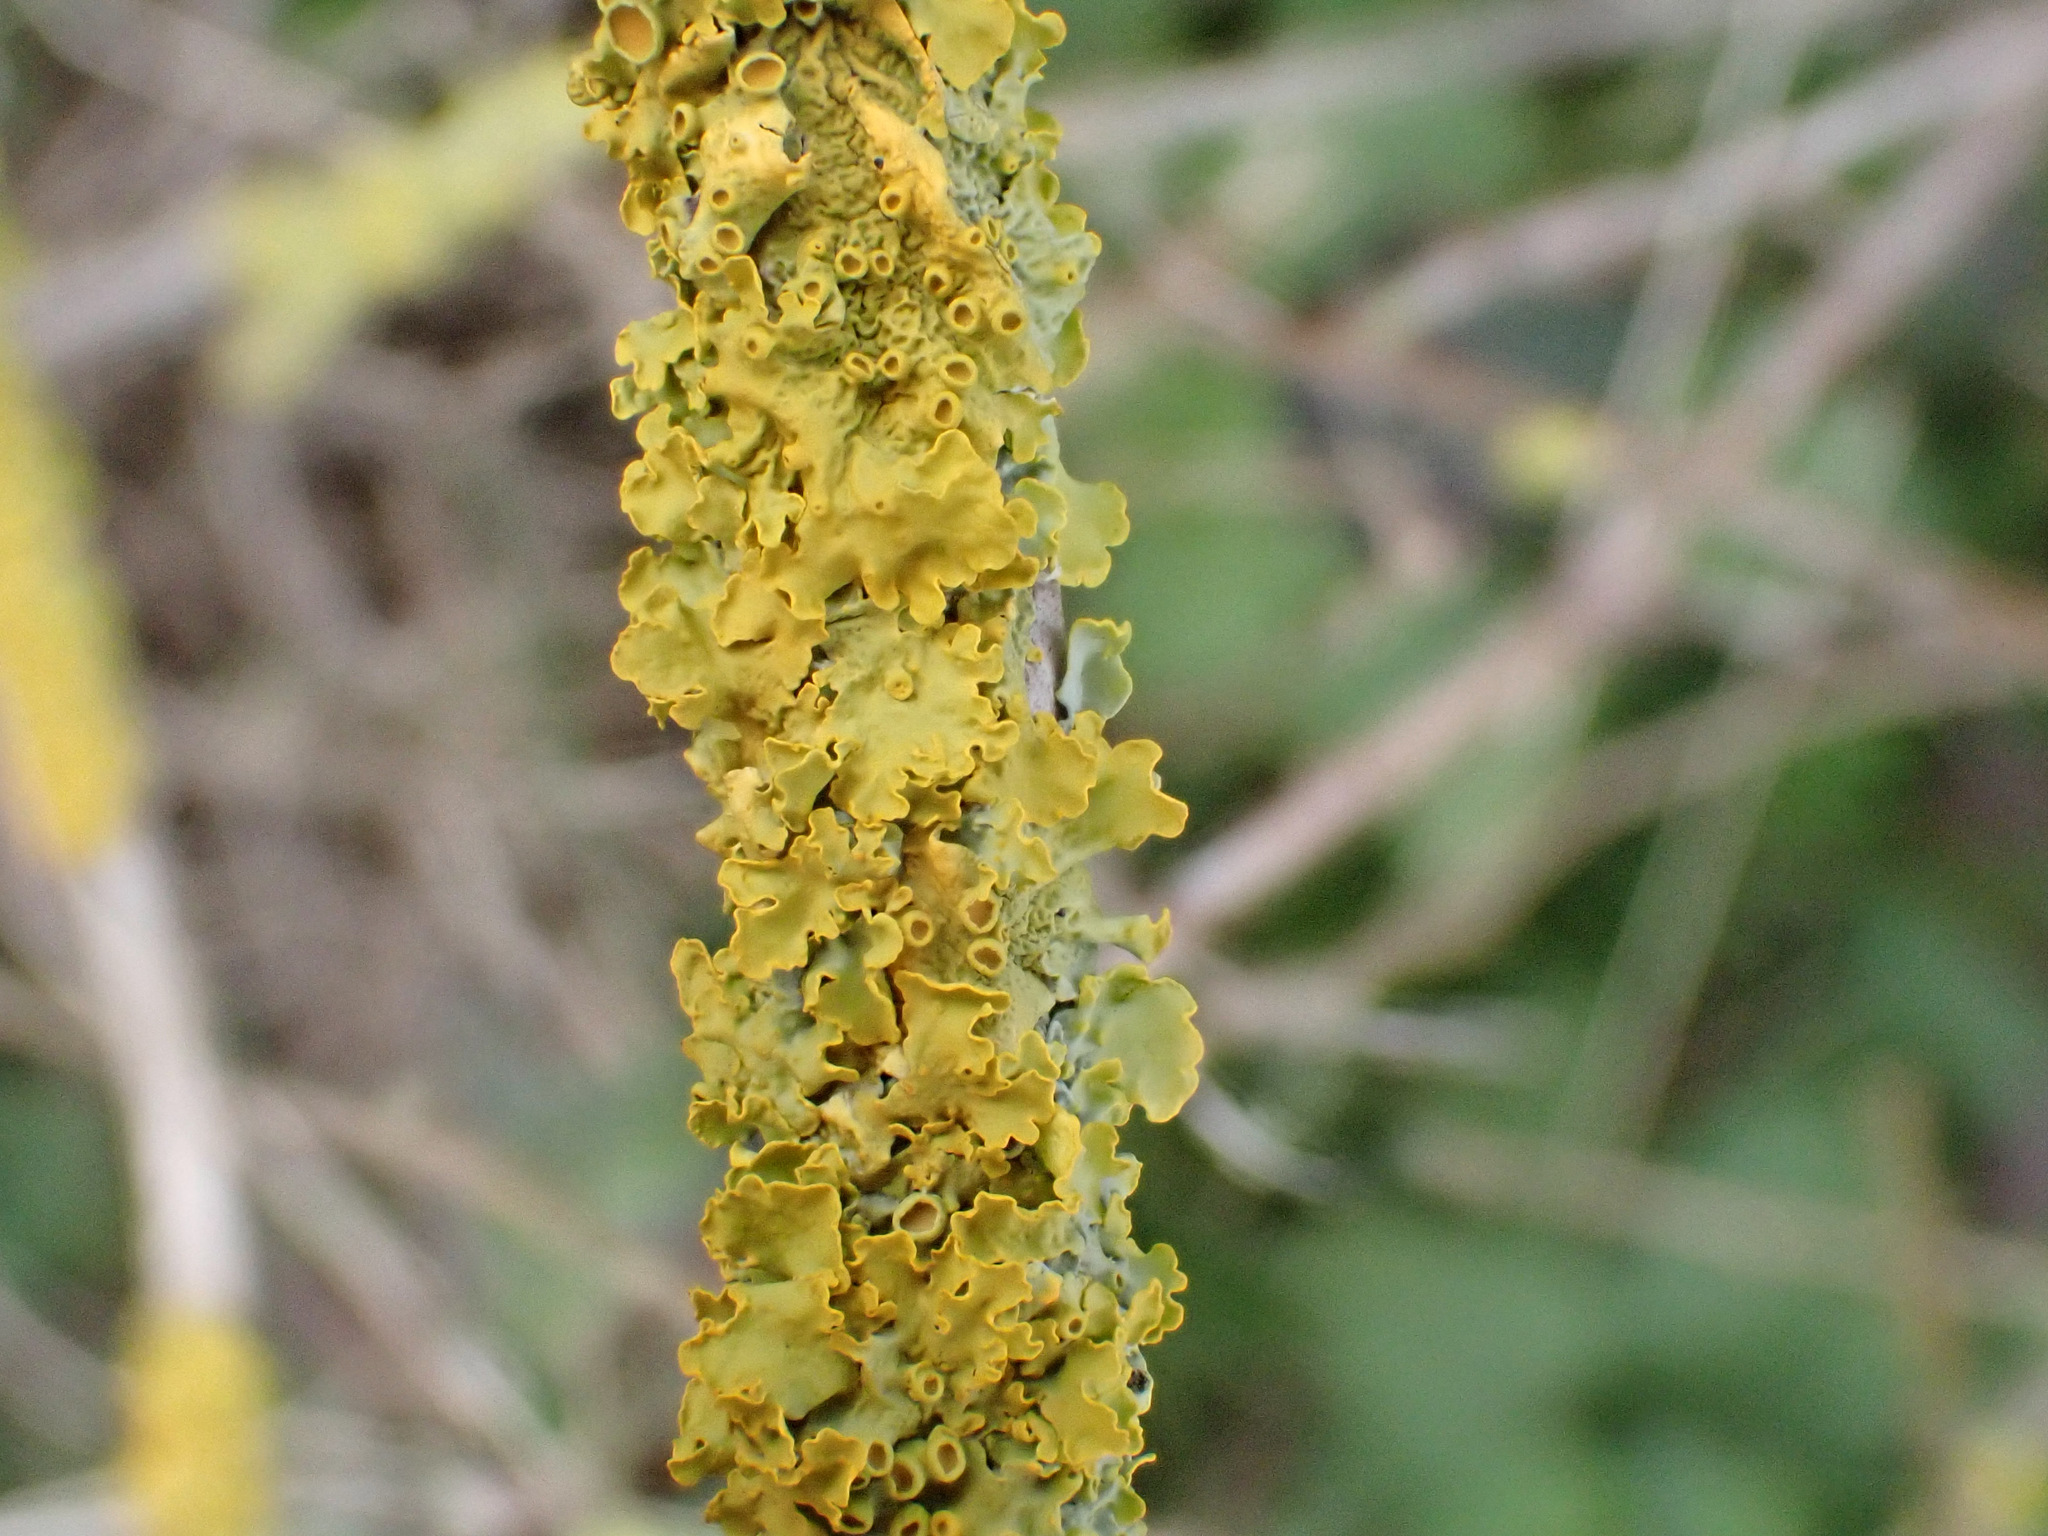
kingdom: Fungi
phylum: Ascomycota
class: Lecanoromycetes
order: Teloschistales
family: Teloschistaceae
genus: Xanthoria
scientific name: Xanthoria parietina
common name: Common orange lichen
